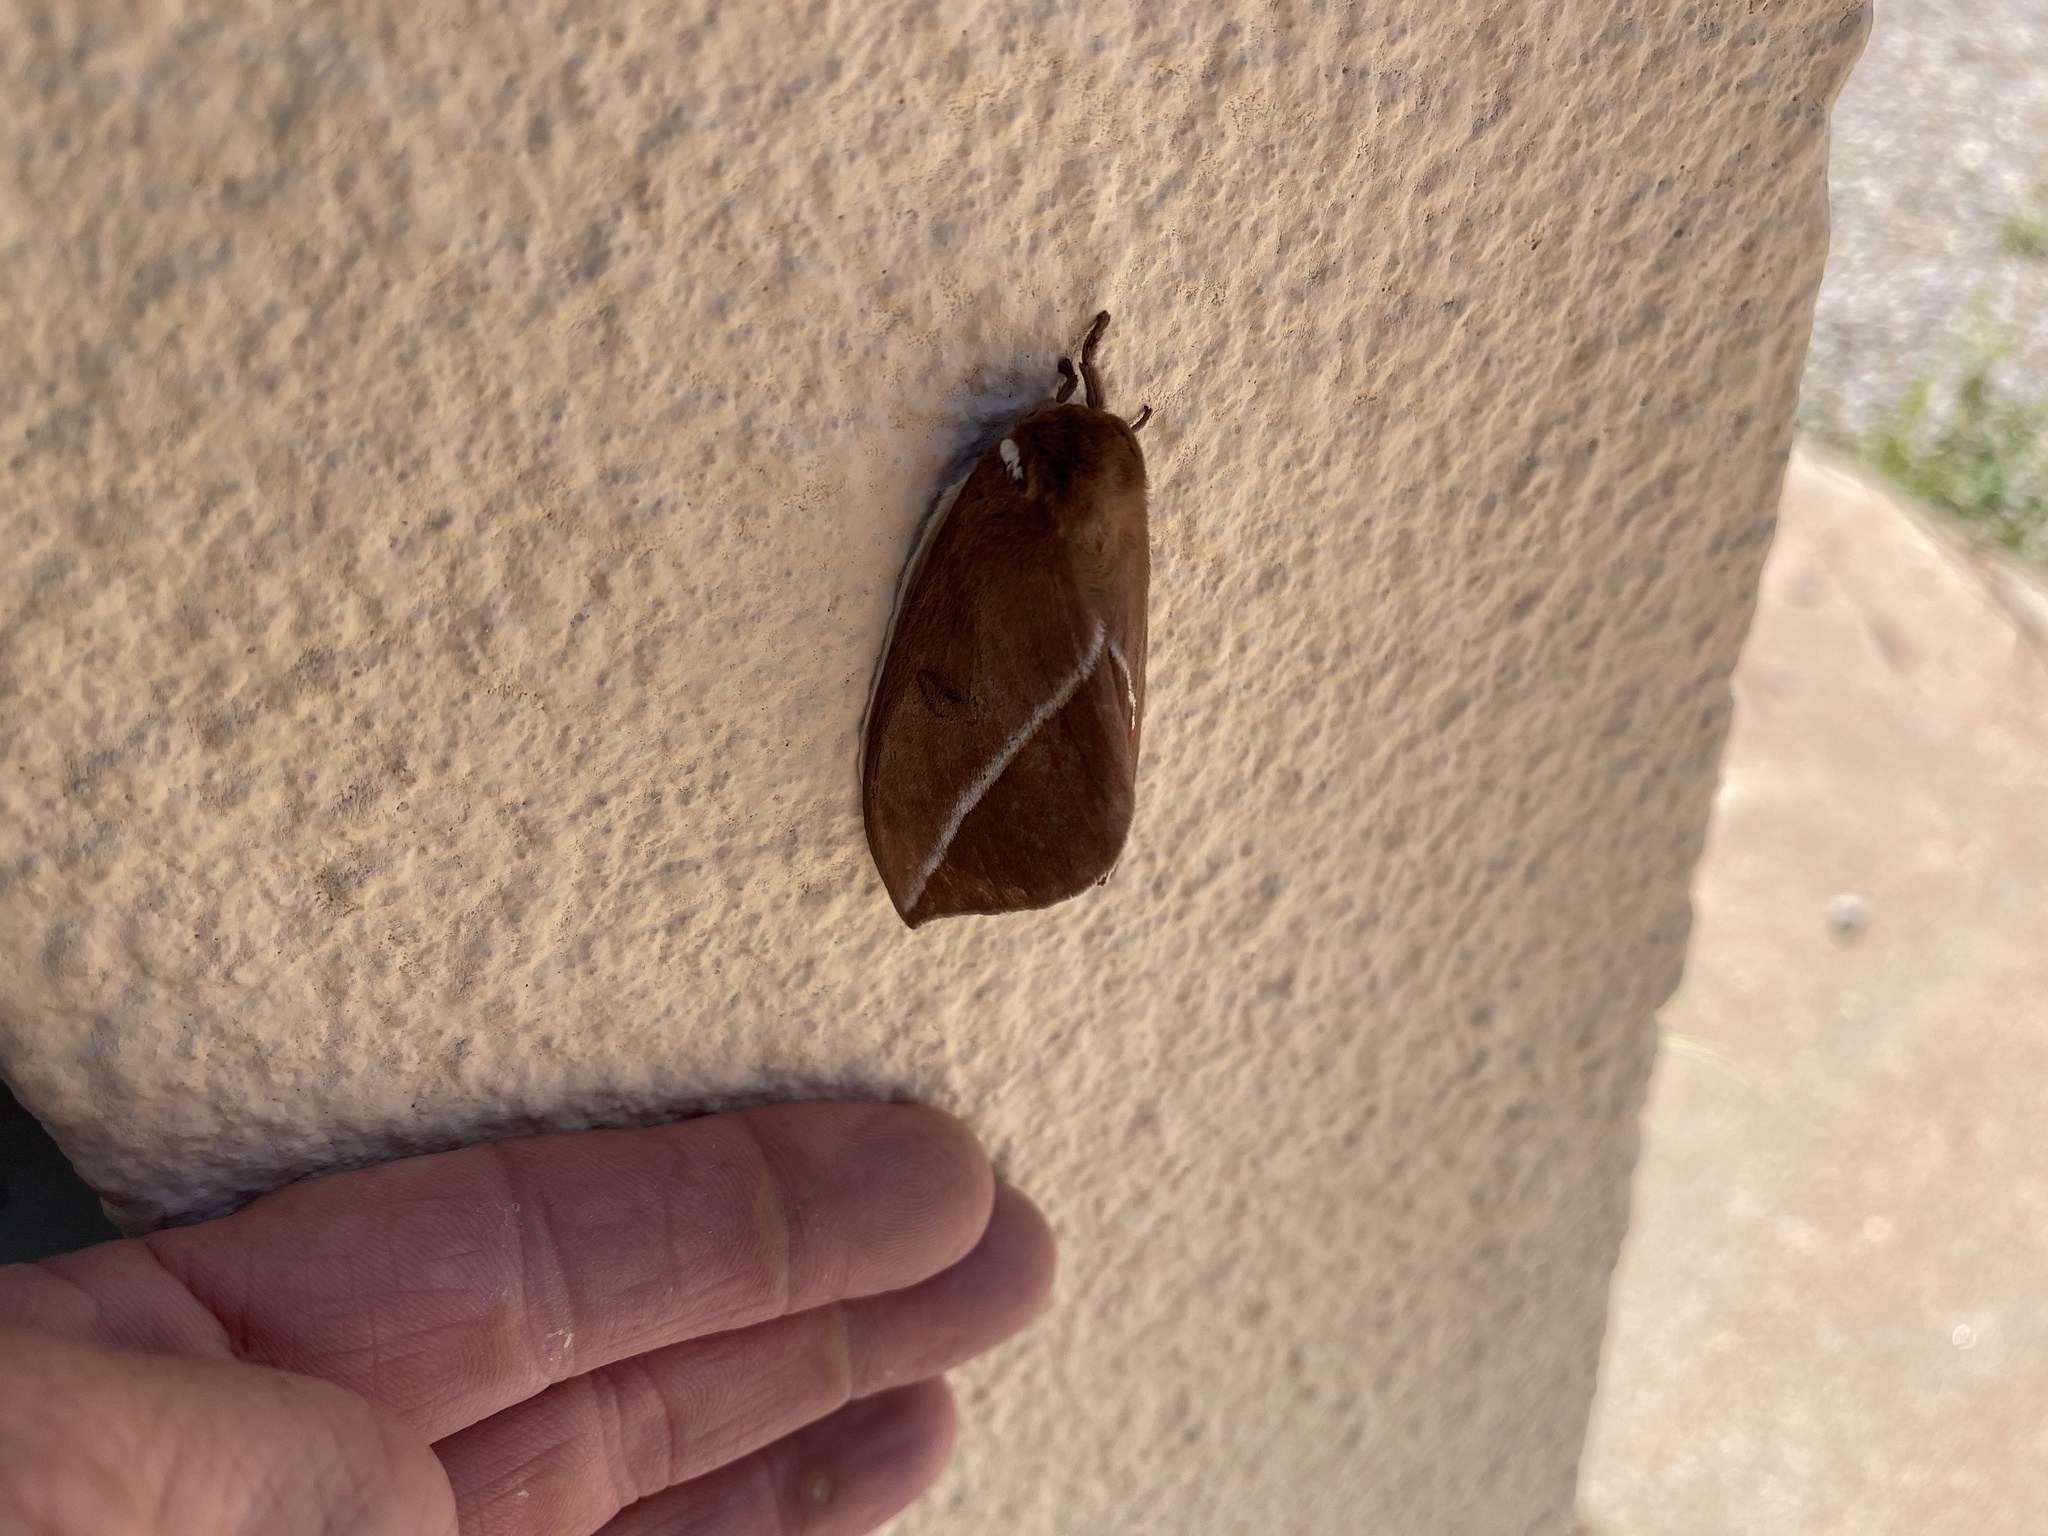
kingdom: Animalia
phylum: Arthropoda
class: Insecta
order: Lepidoptera
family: Saturniidae
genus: Automeris
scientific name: Automeris zephyria
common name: Zephyr eyed silkmoth
